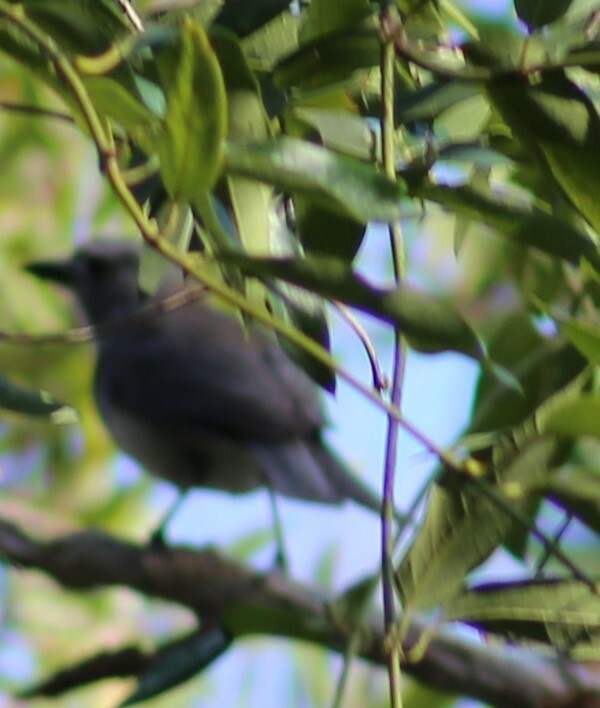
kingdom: Animalia
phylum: Chordata
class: Aves
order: Passeriformes
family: Pachycephalidae
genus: Colluricincla
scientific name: Colluricincla harmonica
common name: Grey shrikethrush
